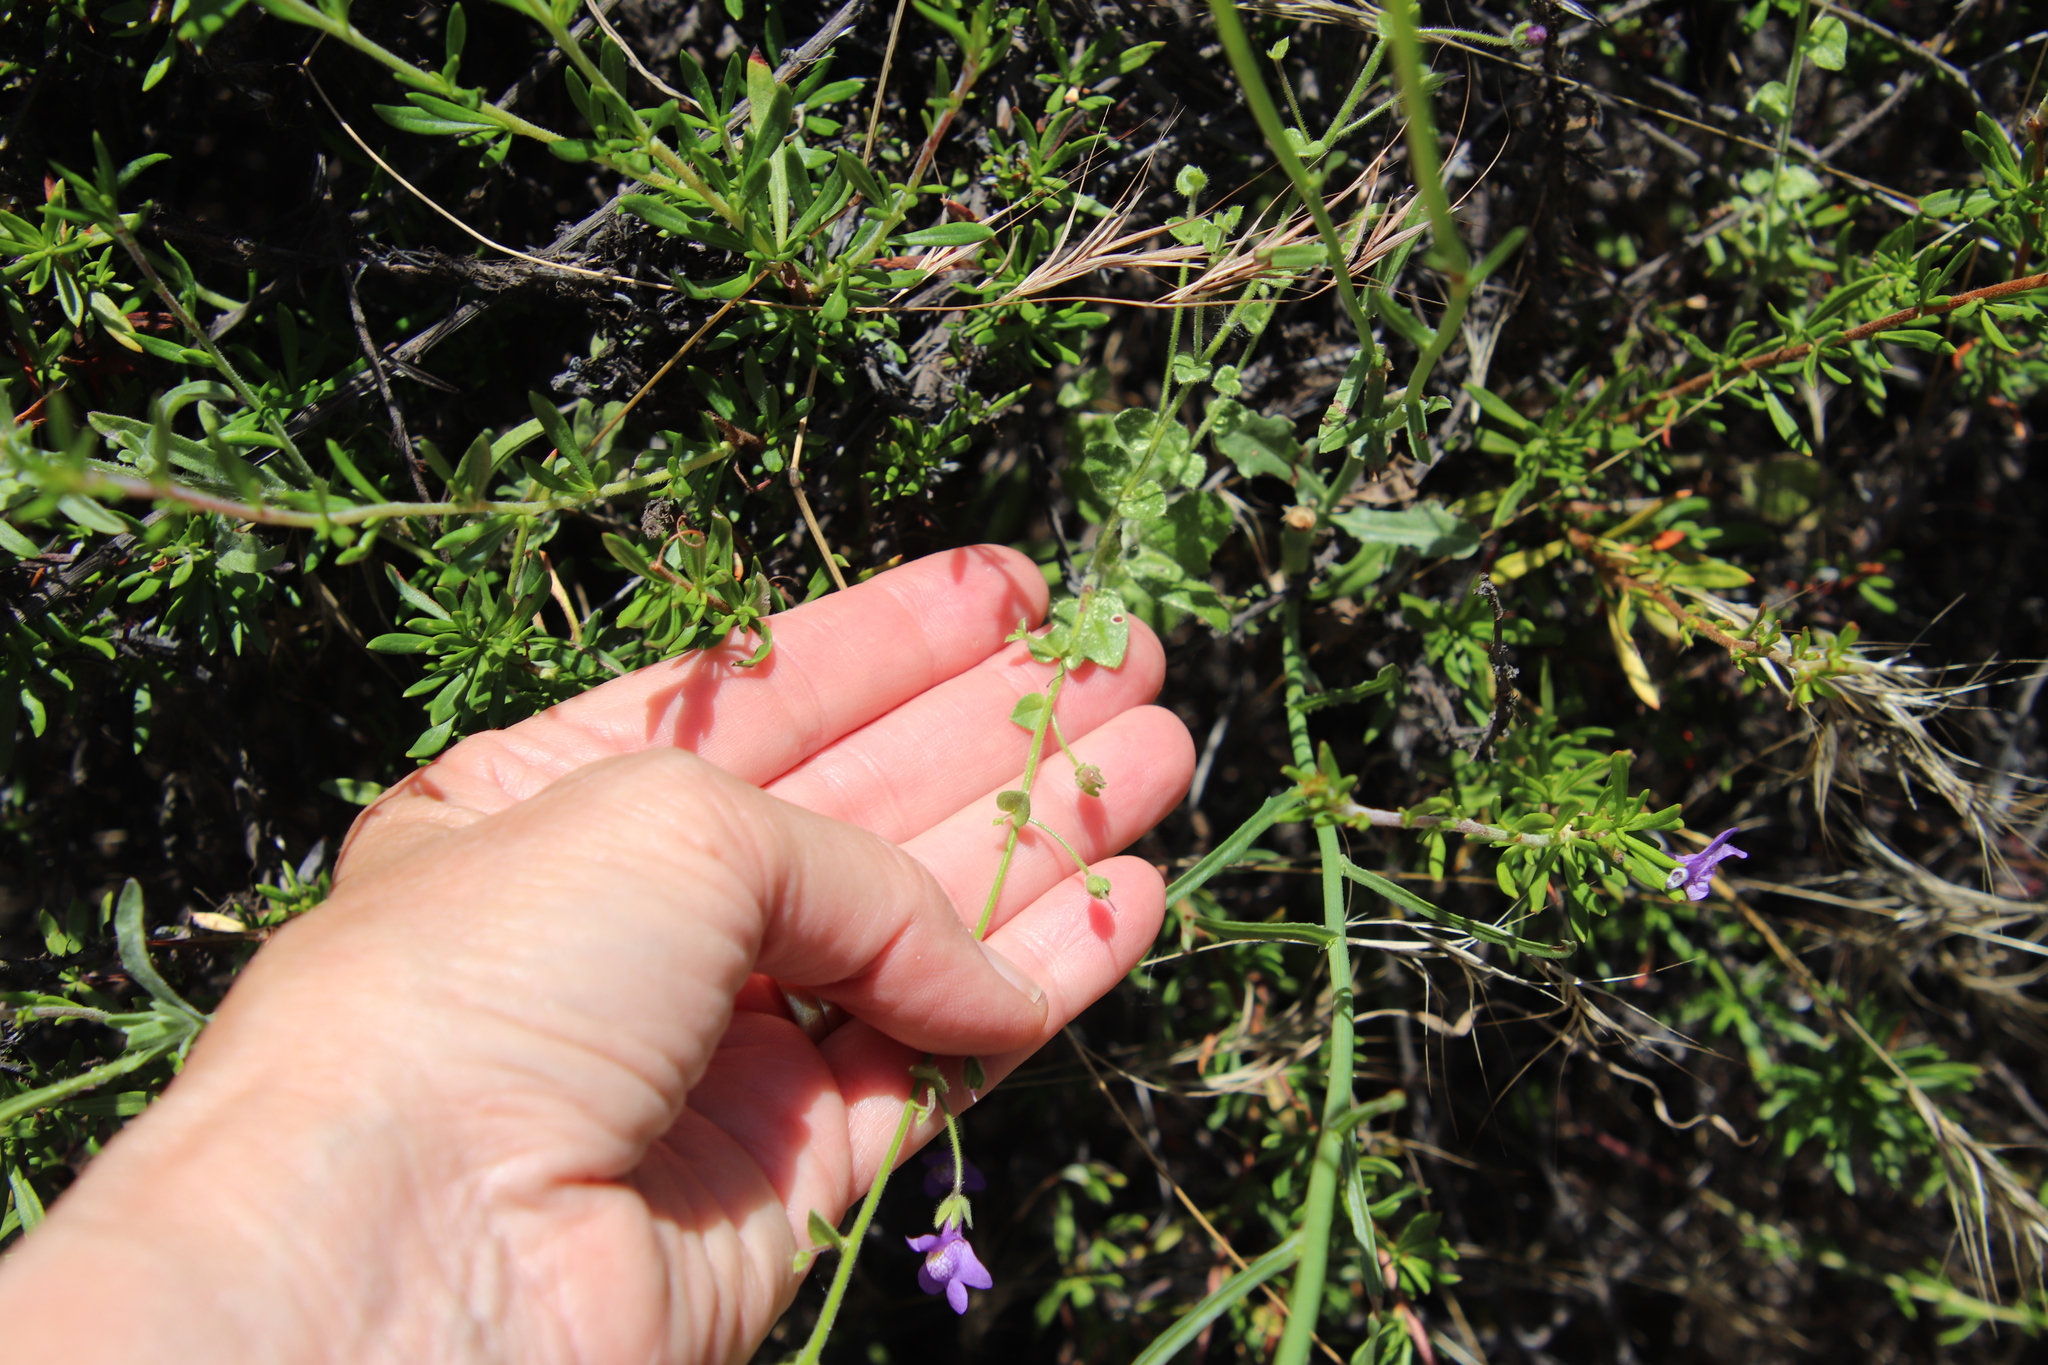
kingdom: Plantae
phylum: Tracheophyta
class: Magnoliopsida
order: Lamiales
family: Plantaginaceae
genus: Sairocarpus
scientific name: Sairocarpus nuttallianus
